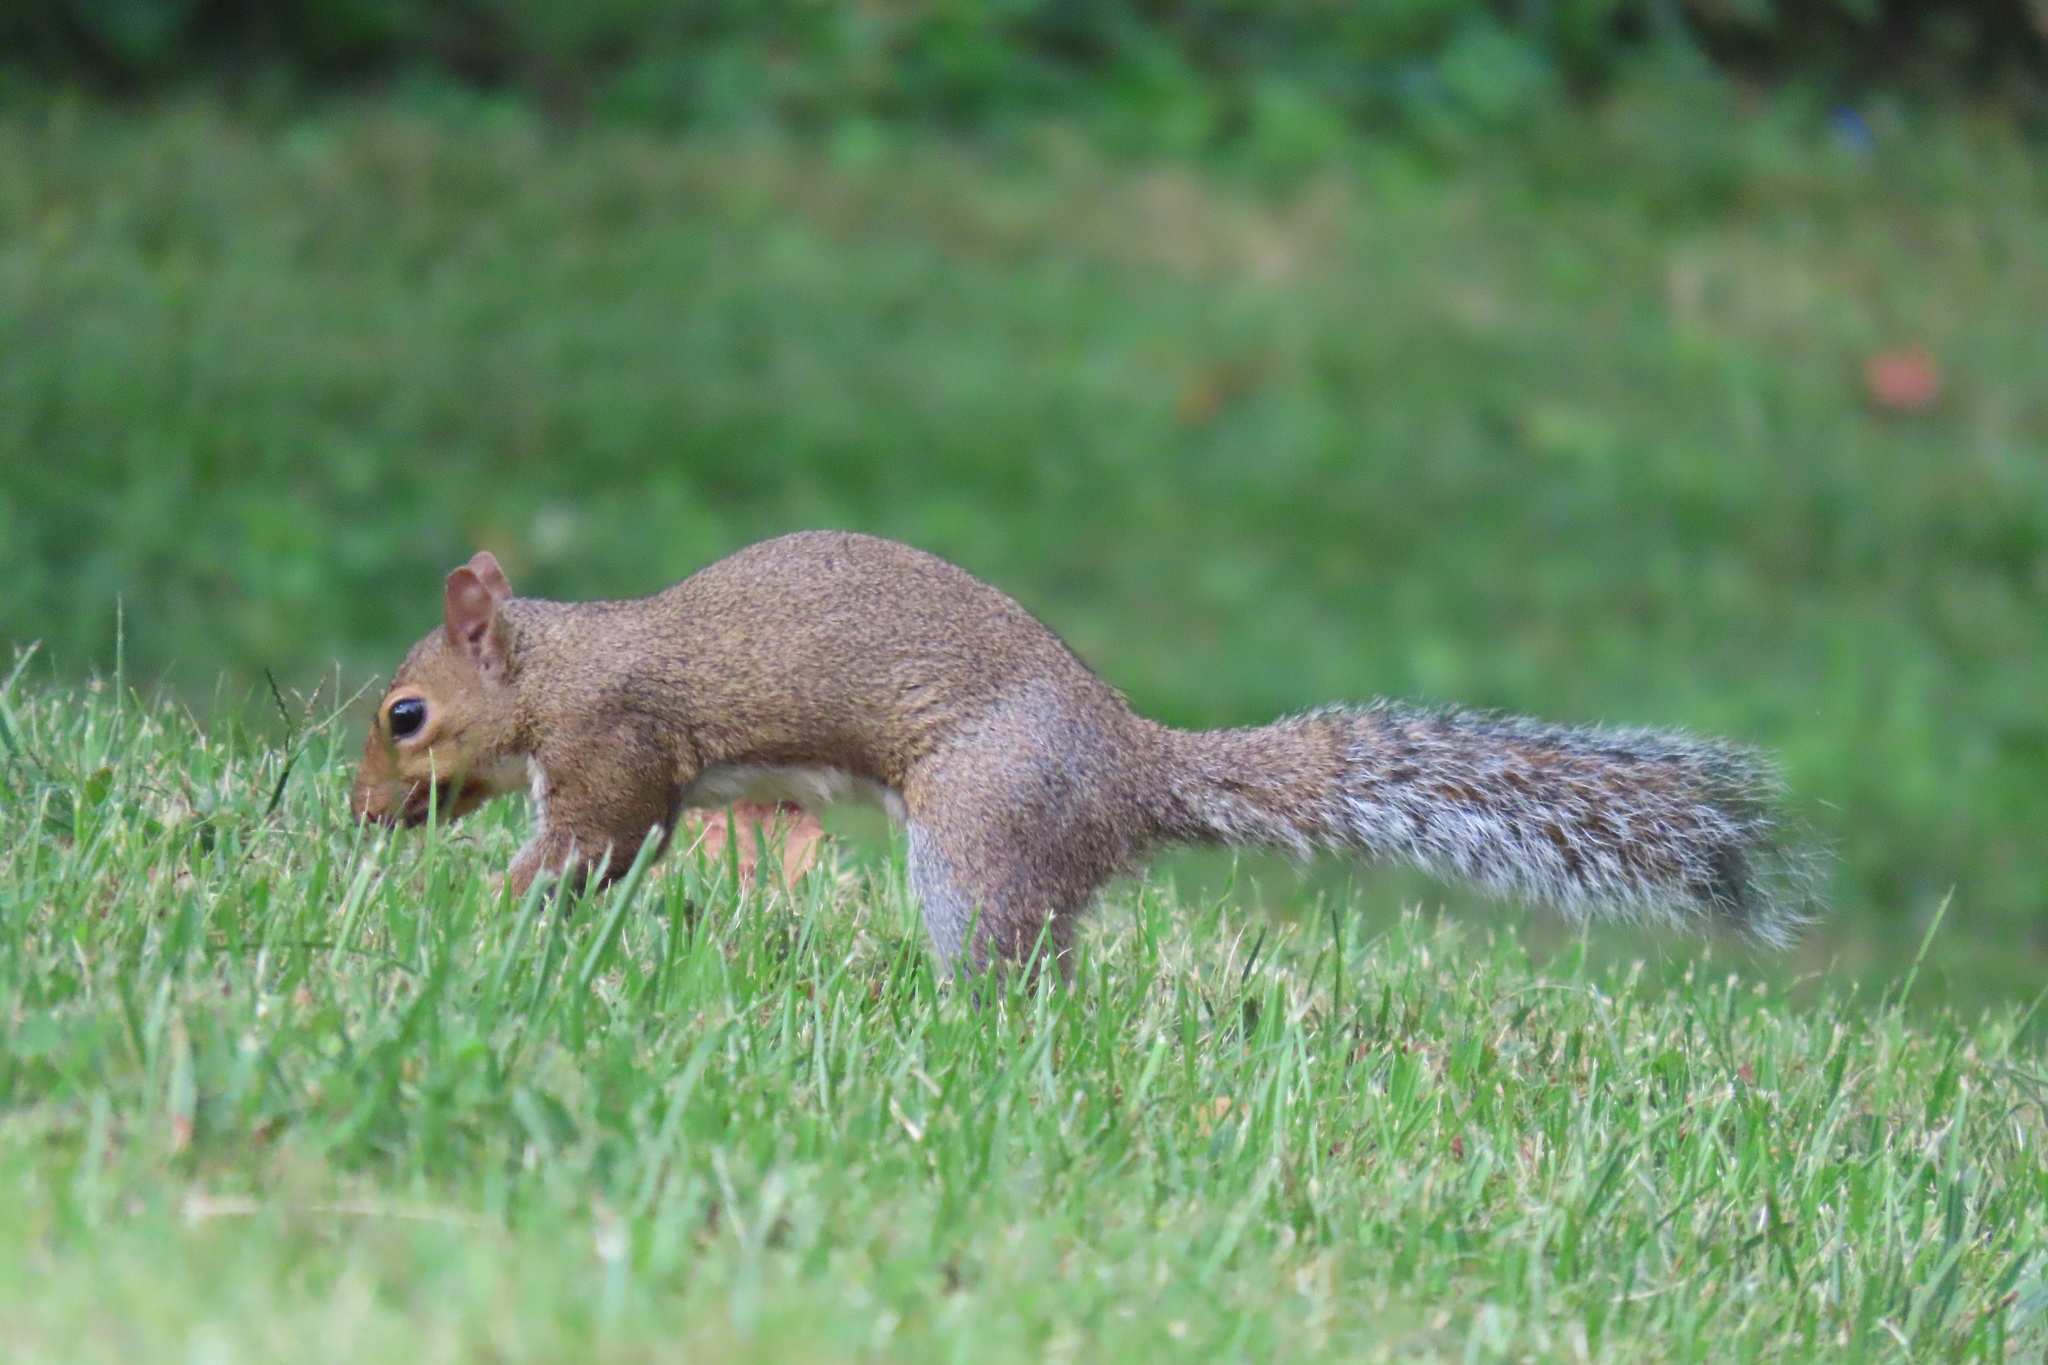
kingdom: Animalia
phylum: Chordata
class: Mammalia
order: Rodentia
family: Sciuridae
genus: Sciurus
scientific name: Sciurus carolinensis
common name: Eastern gray squirrel
